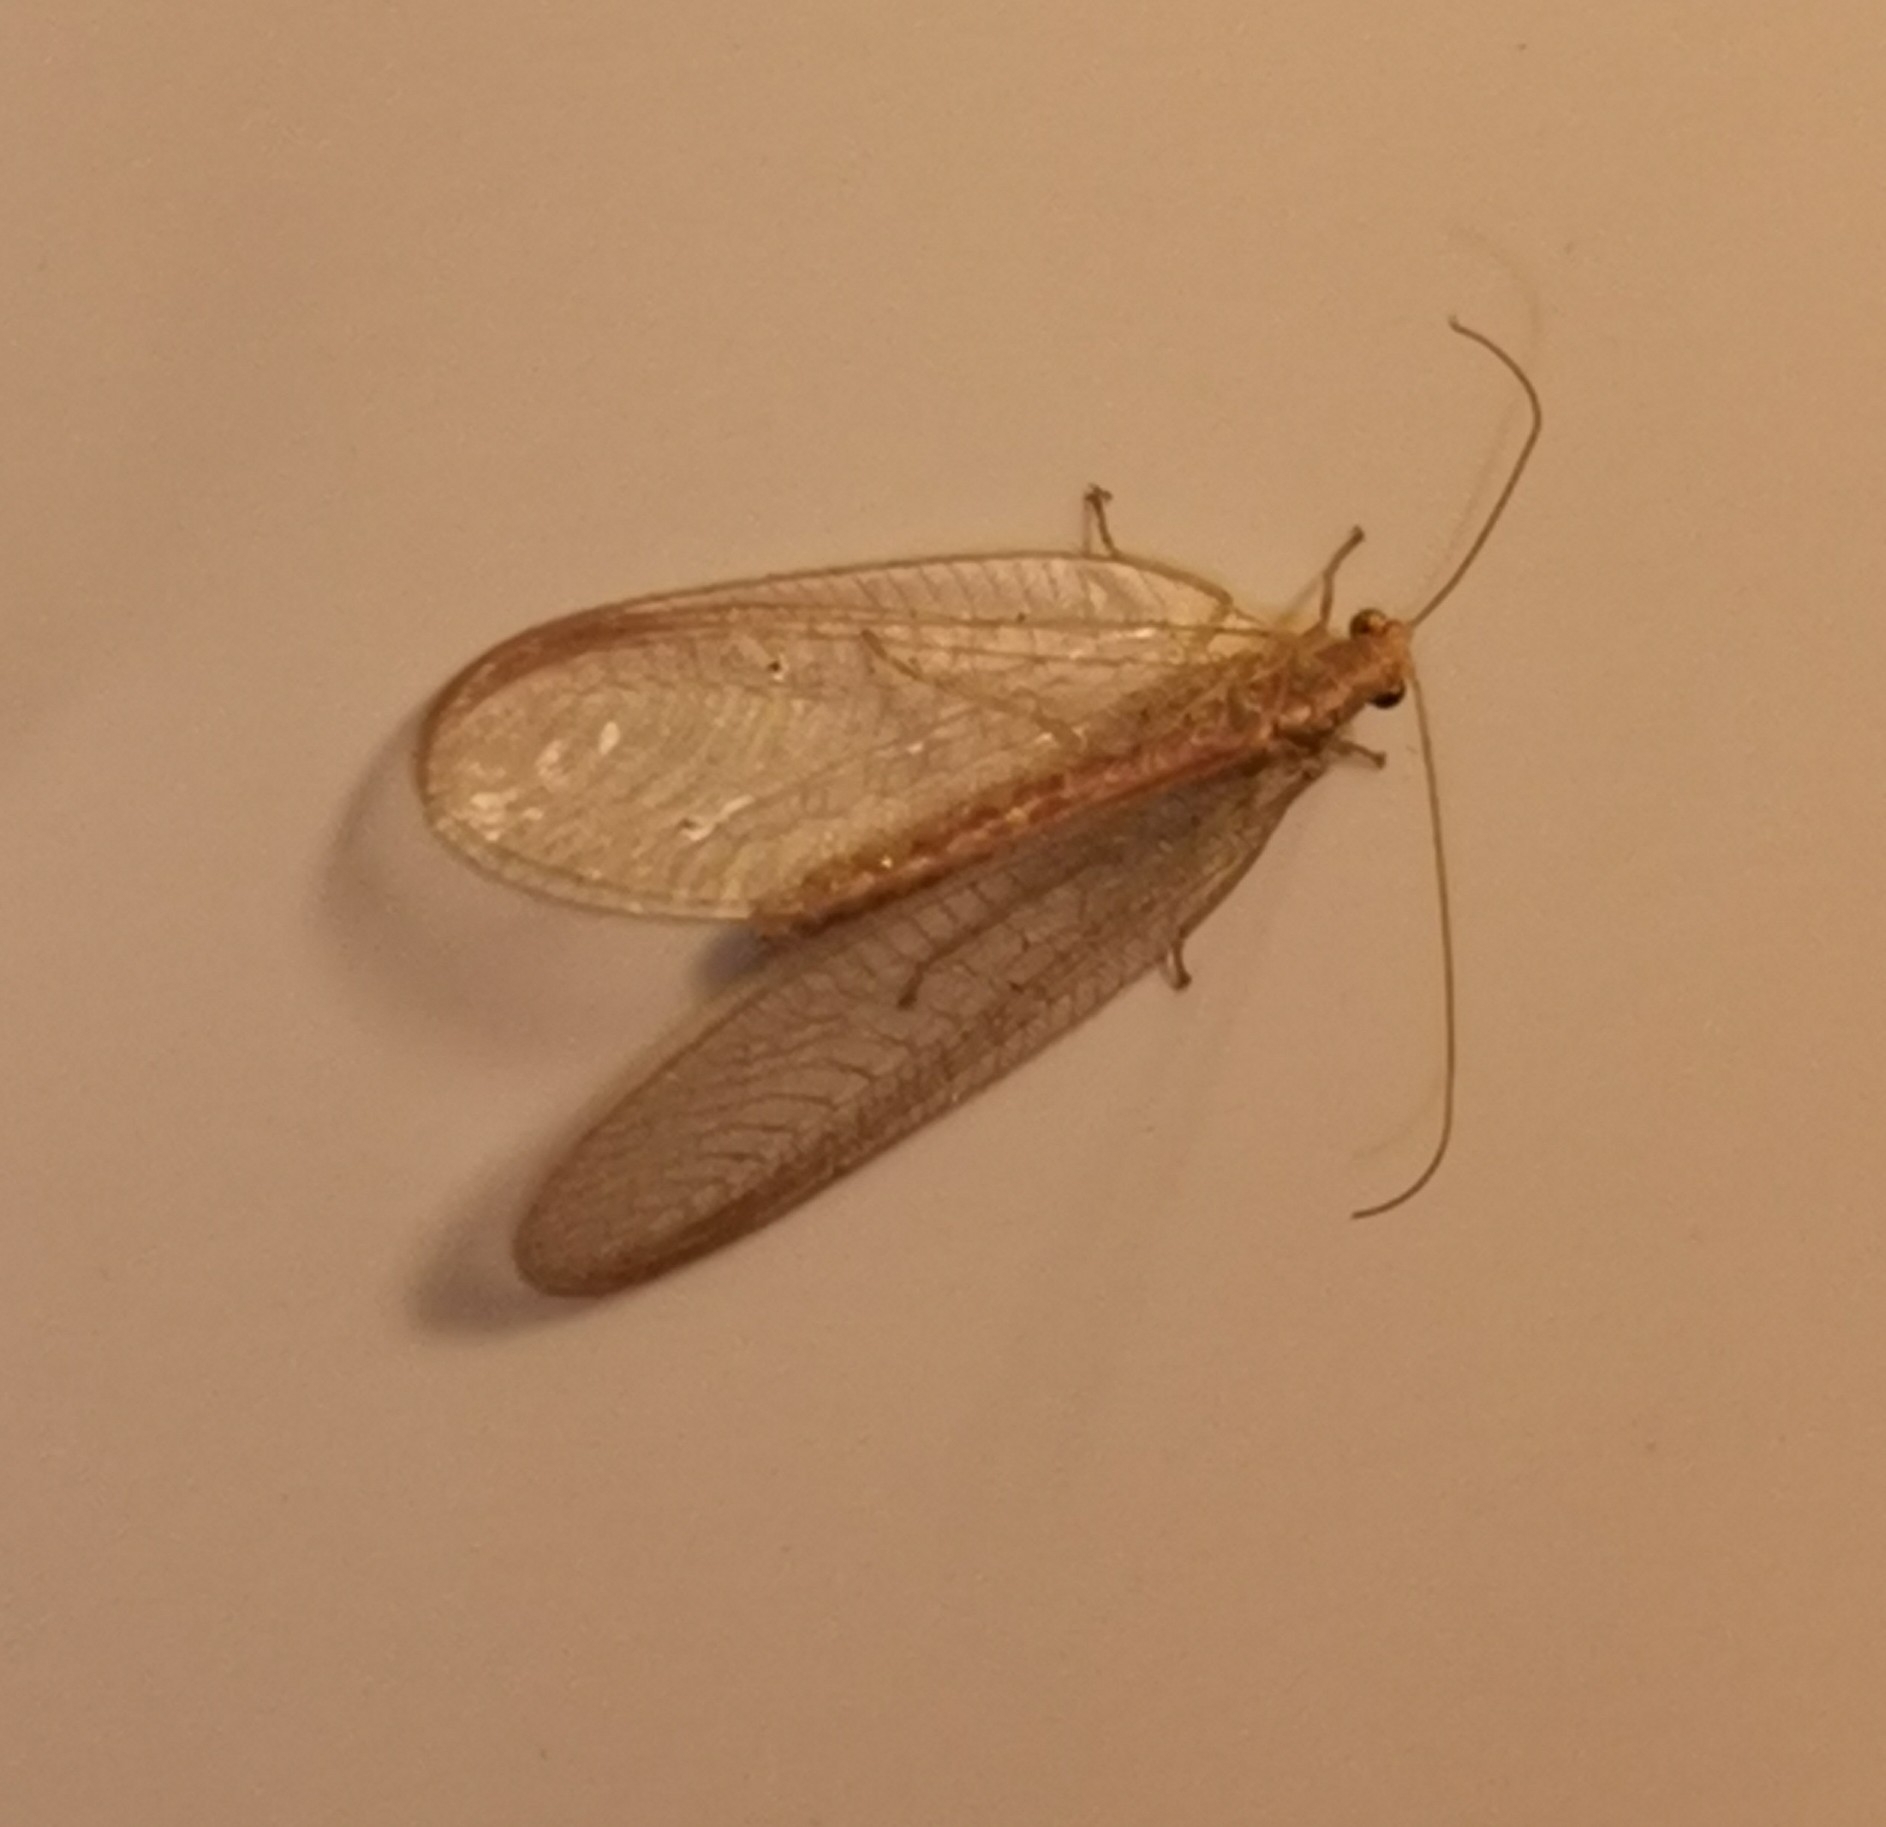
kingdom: Animalia
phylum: Arthropoda
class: Insecta
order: Neuroptera
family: Chrysopidae
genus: Chrysoperla
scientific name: Chrysoperla
